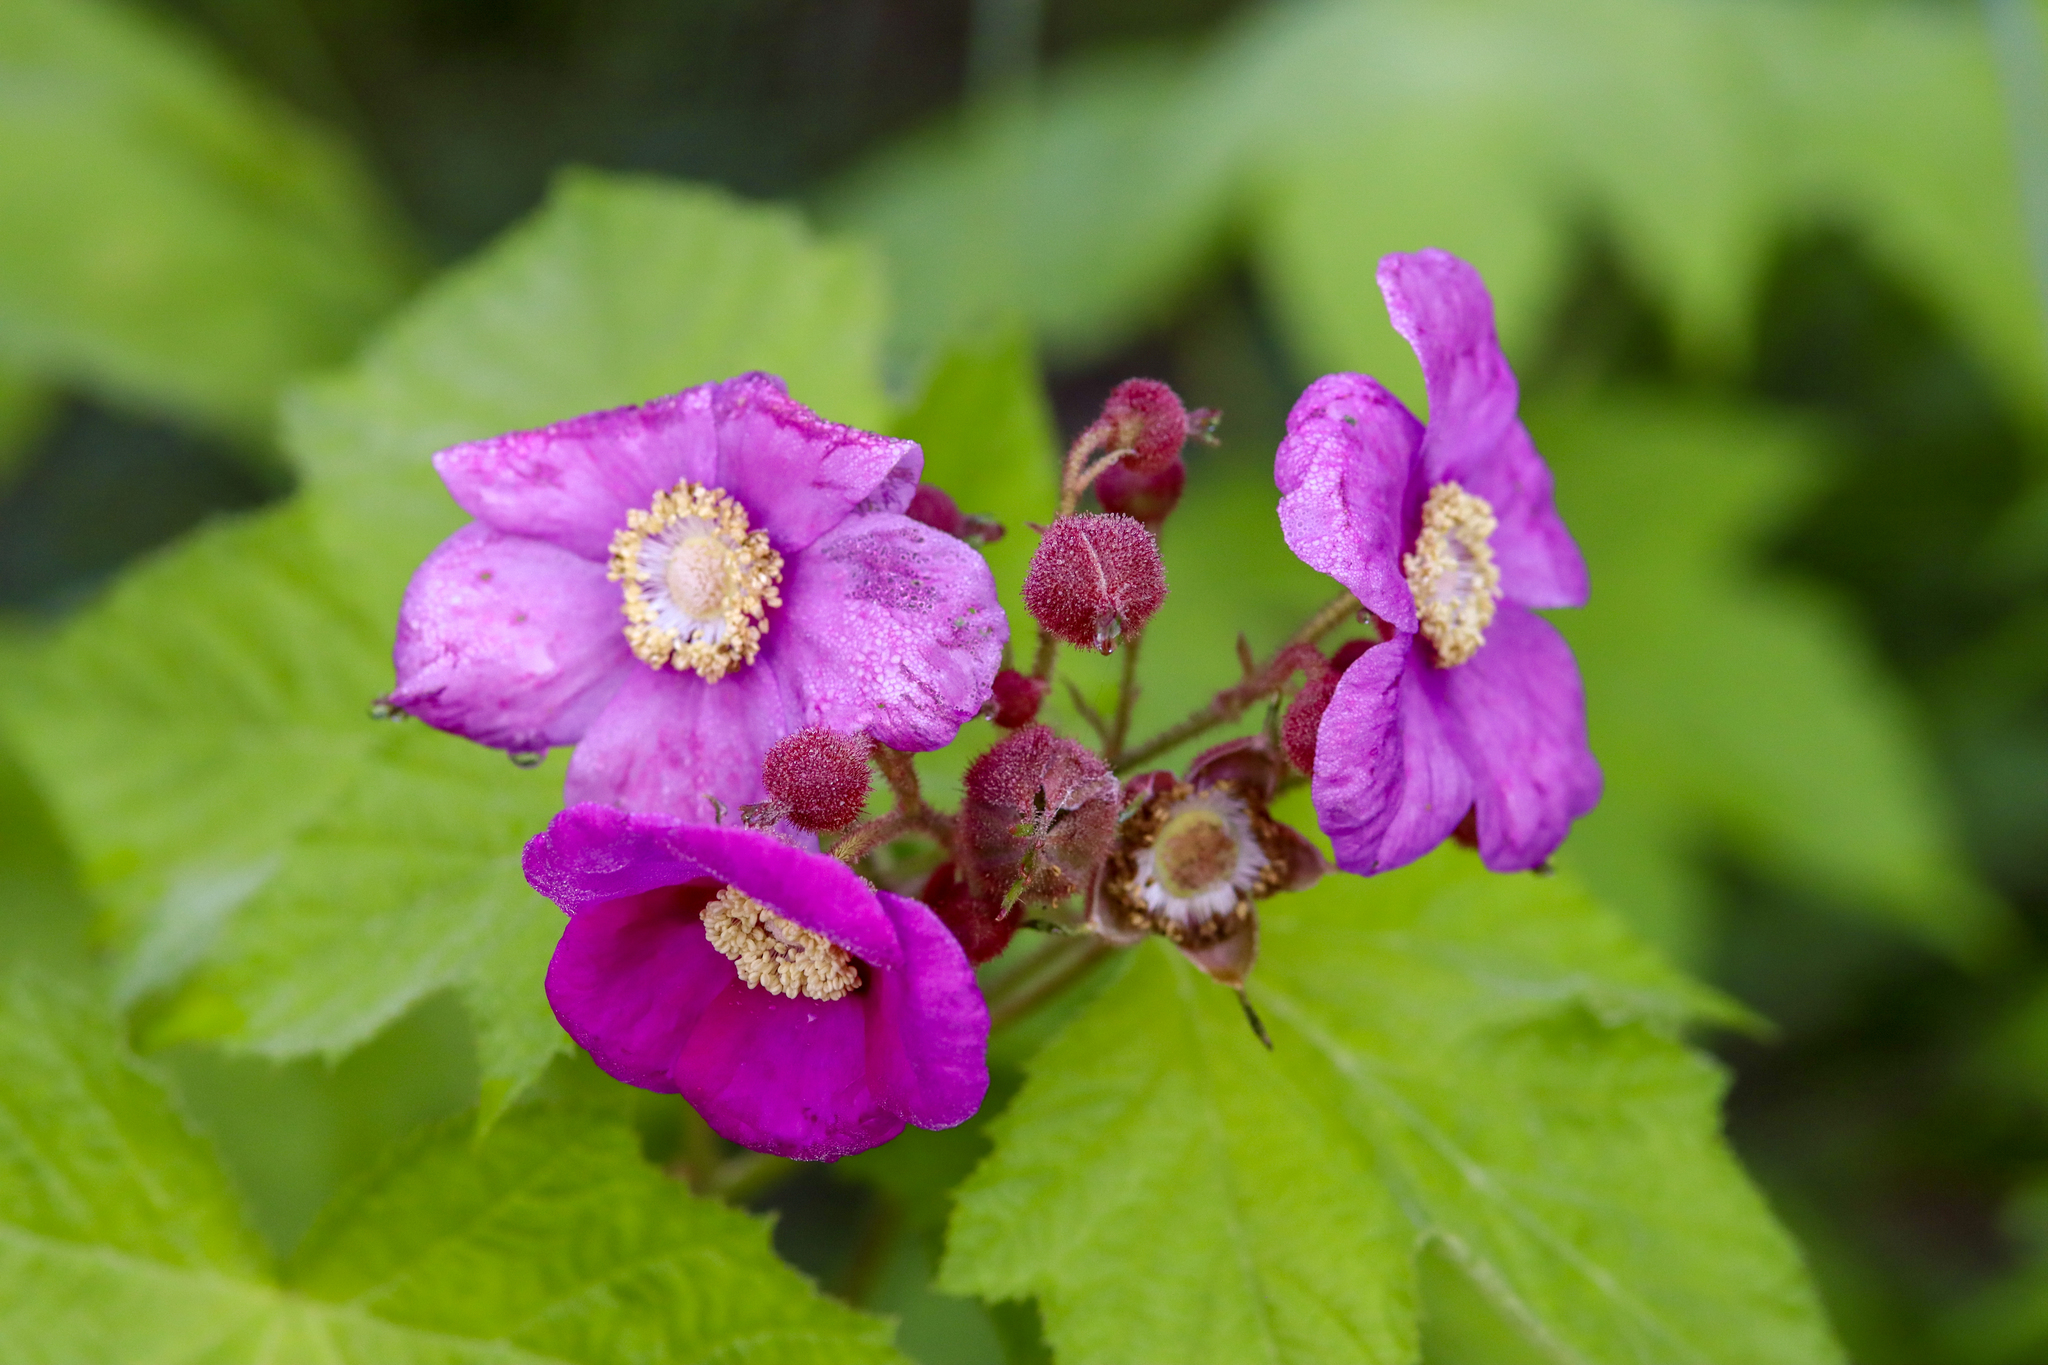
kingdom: Plantae
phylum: Tracheophyta
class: Magnoliopsida
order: Rosales
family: Rosaceae
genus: Rubus
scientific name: Rubus odoratus
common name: Purple-flowered raspberry
